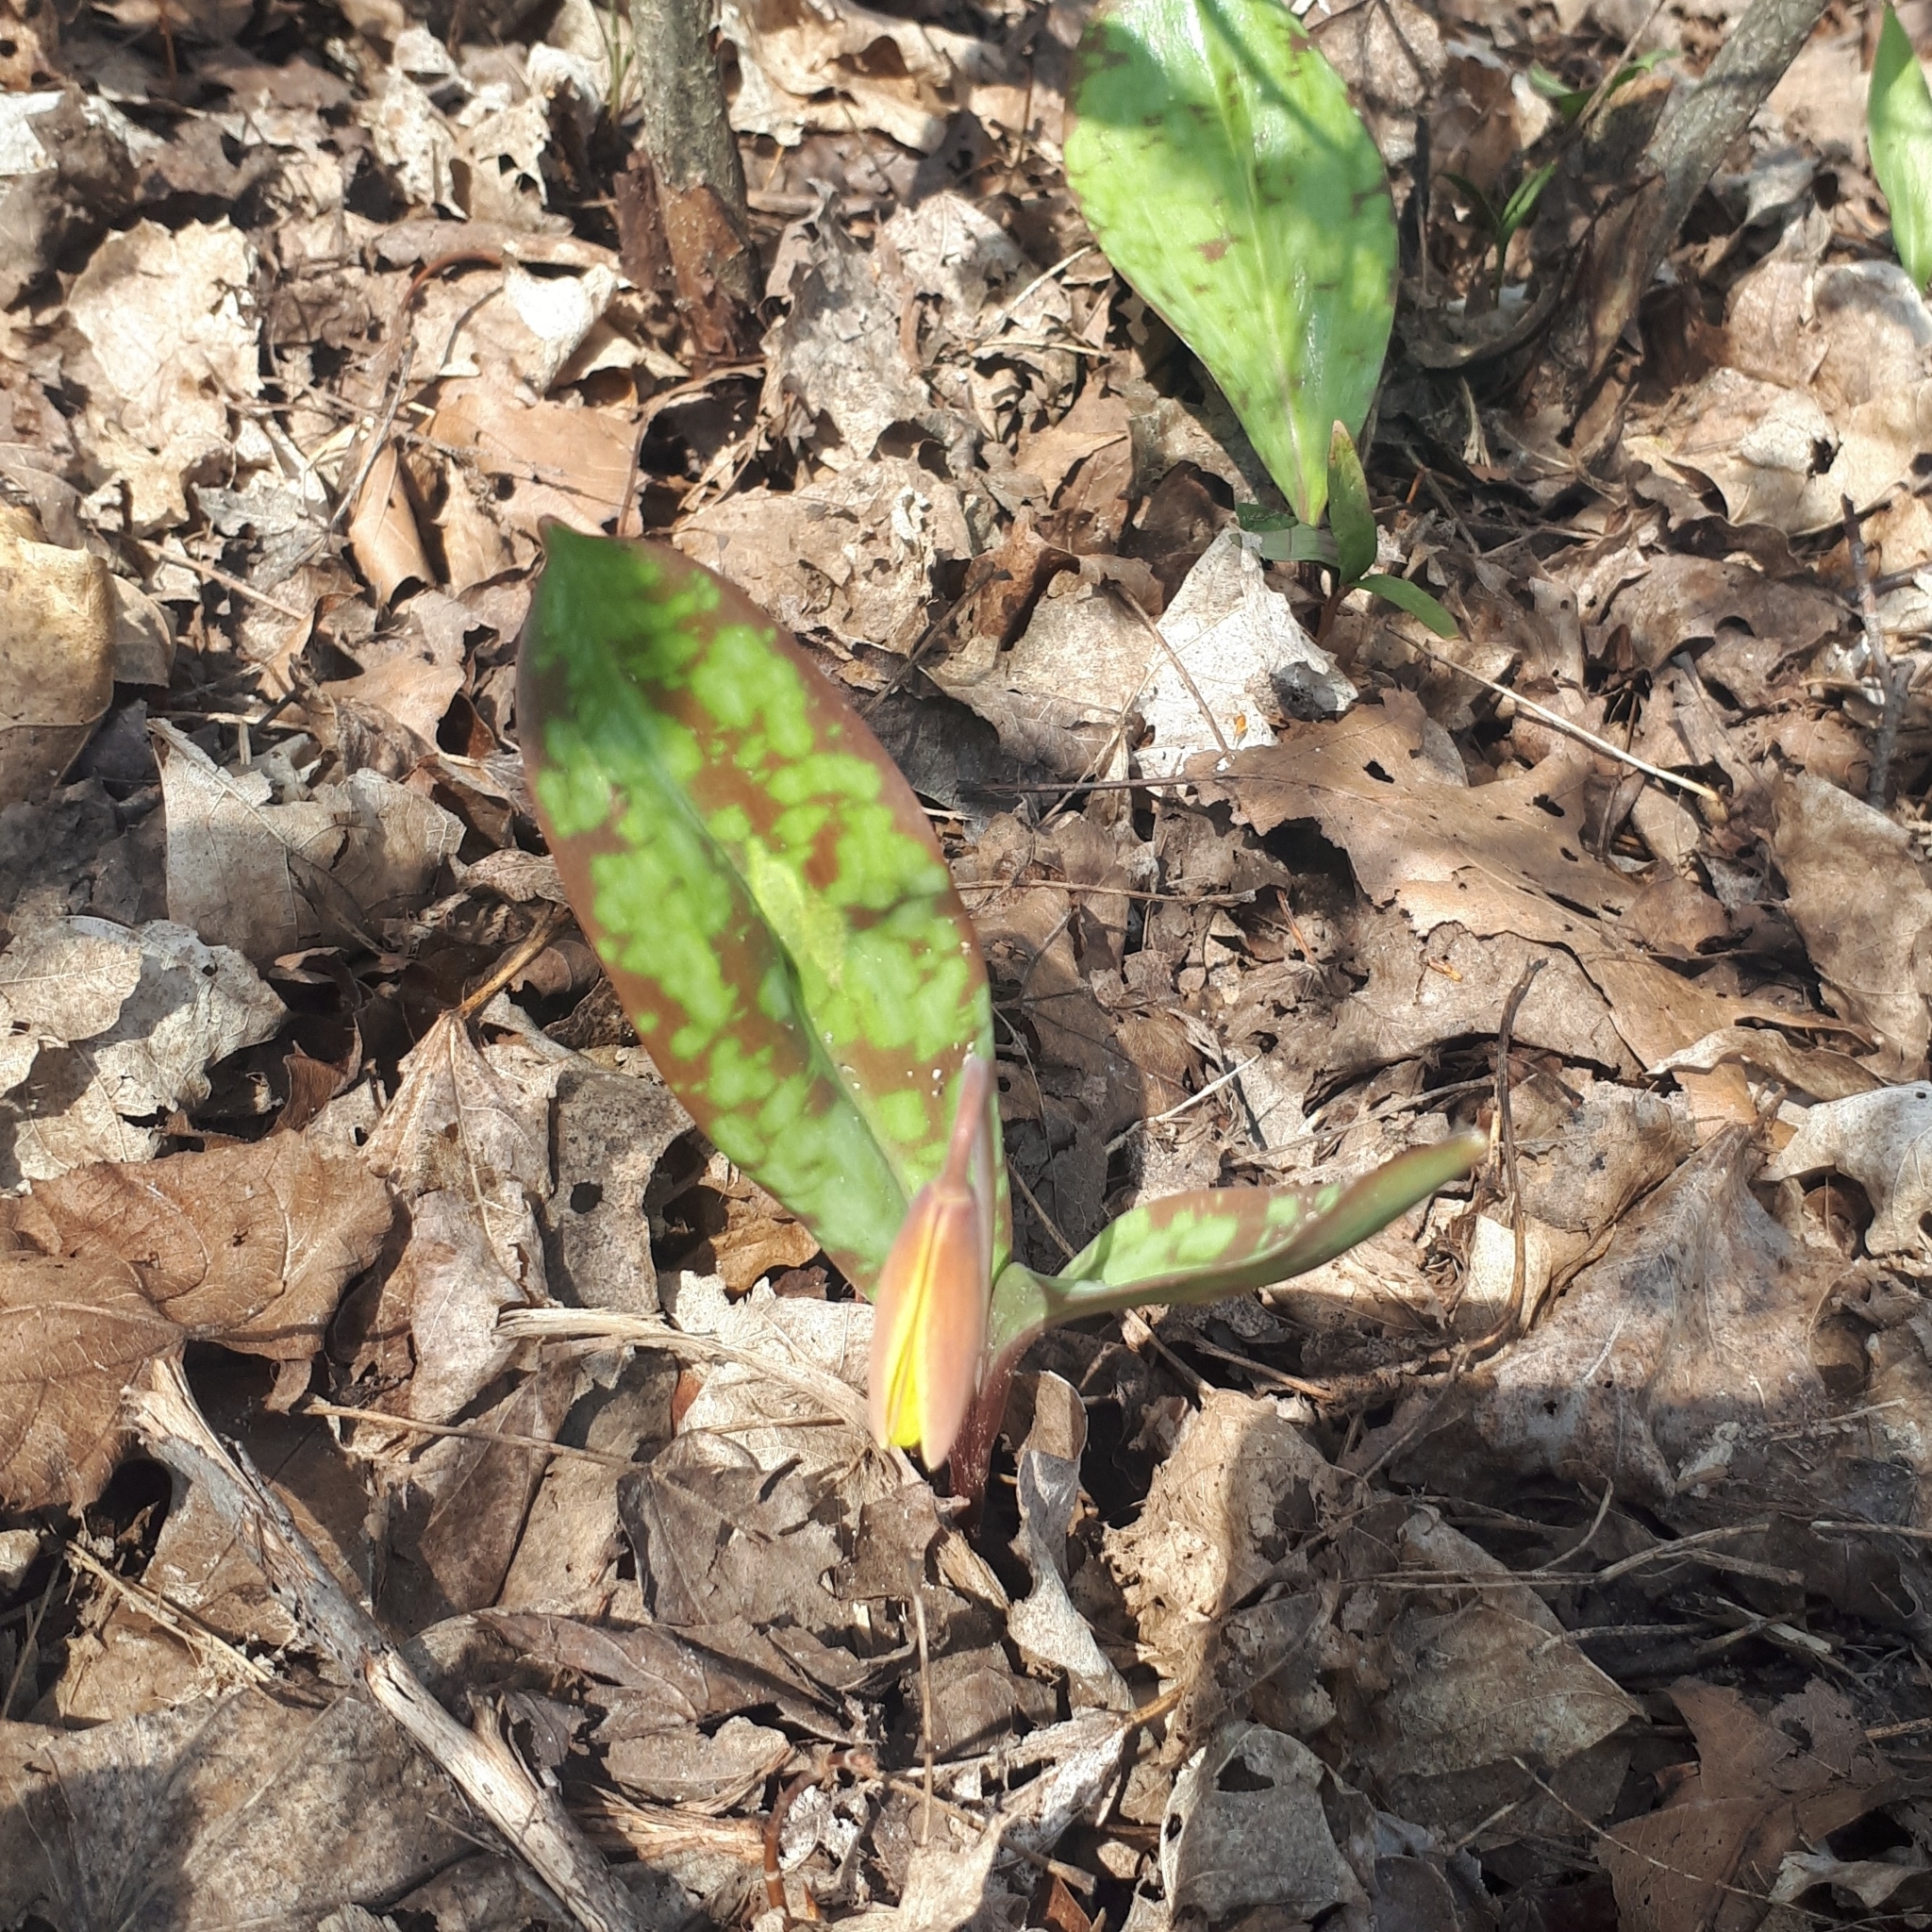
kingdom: Plantae
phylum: Tracheophyta
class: Liliopsida
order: Liliales
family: Liliaceae
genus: Erythronium
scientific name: Erythronium americanum
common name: Yellow adder's-tongue
